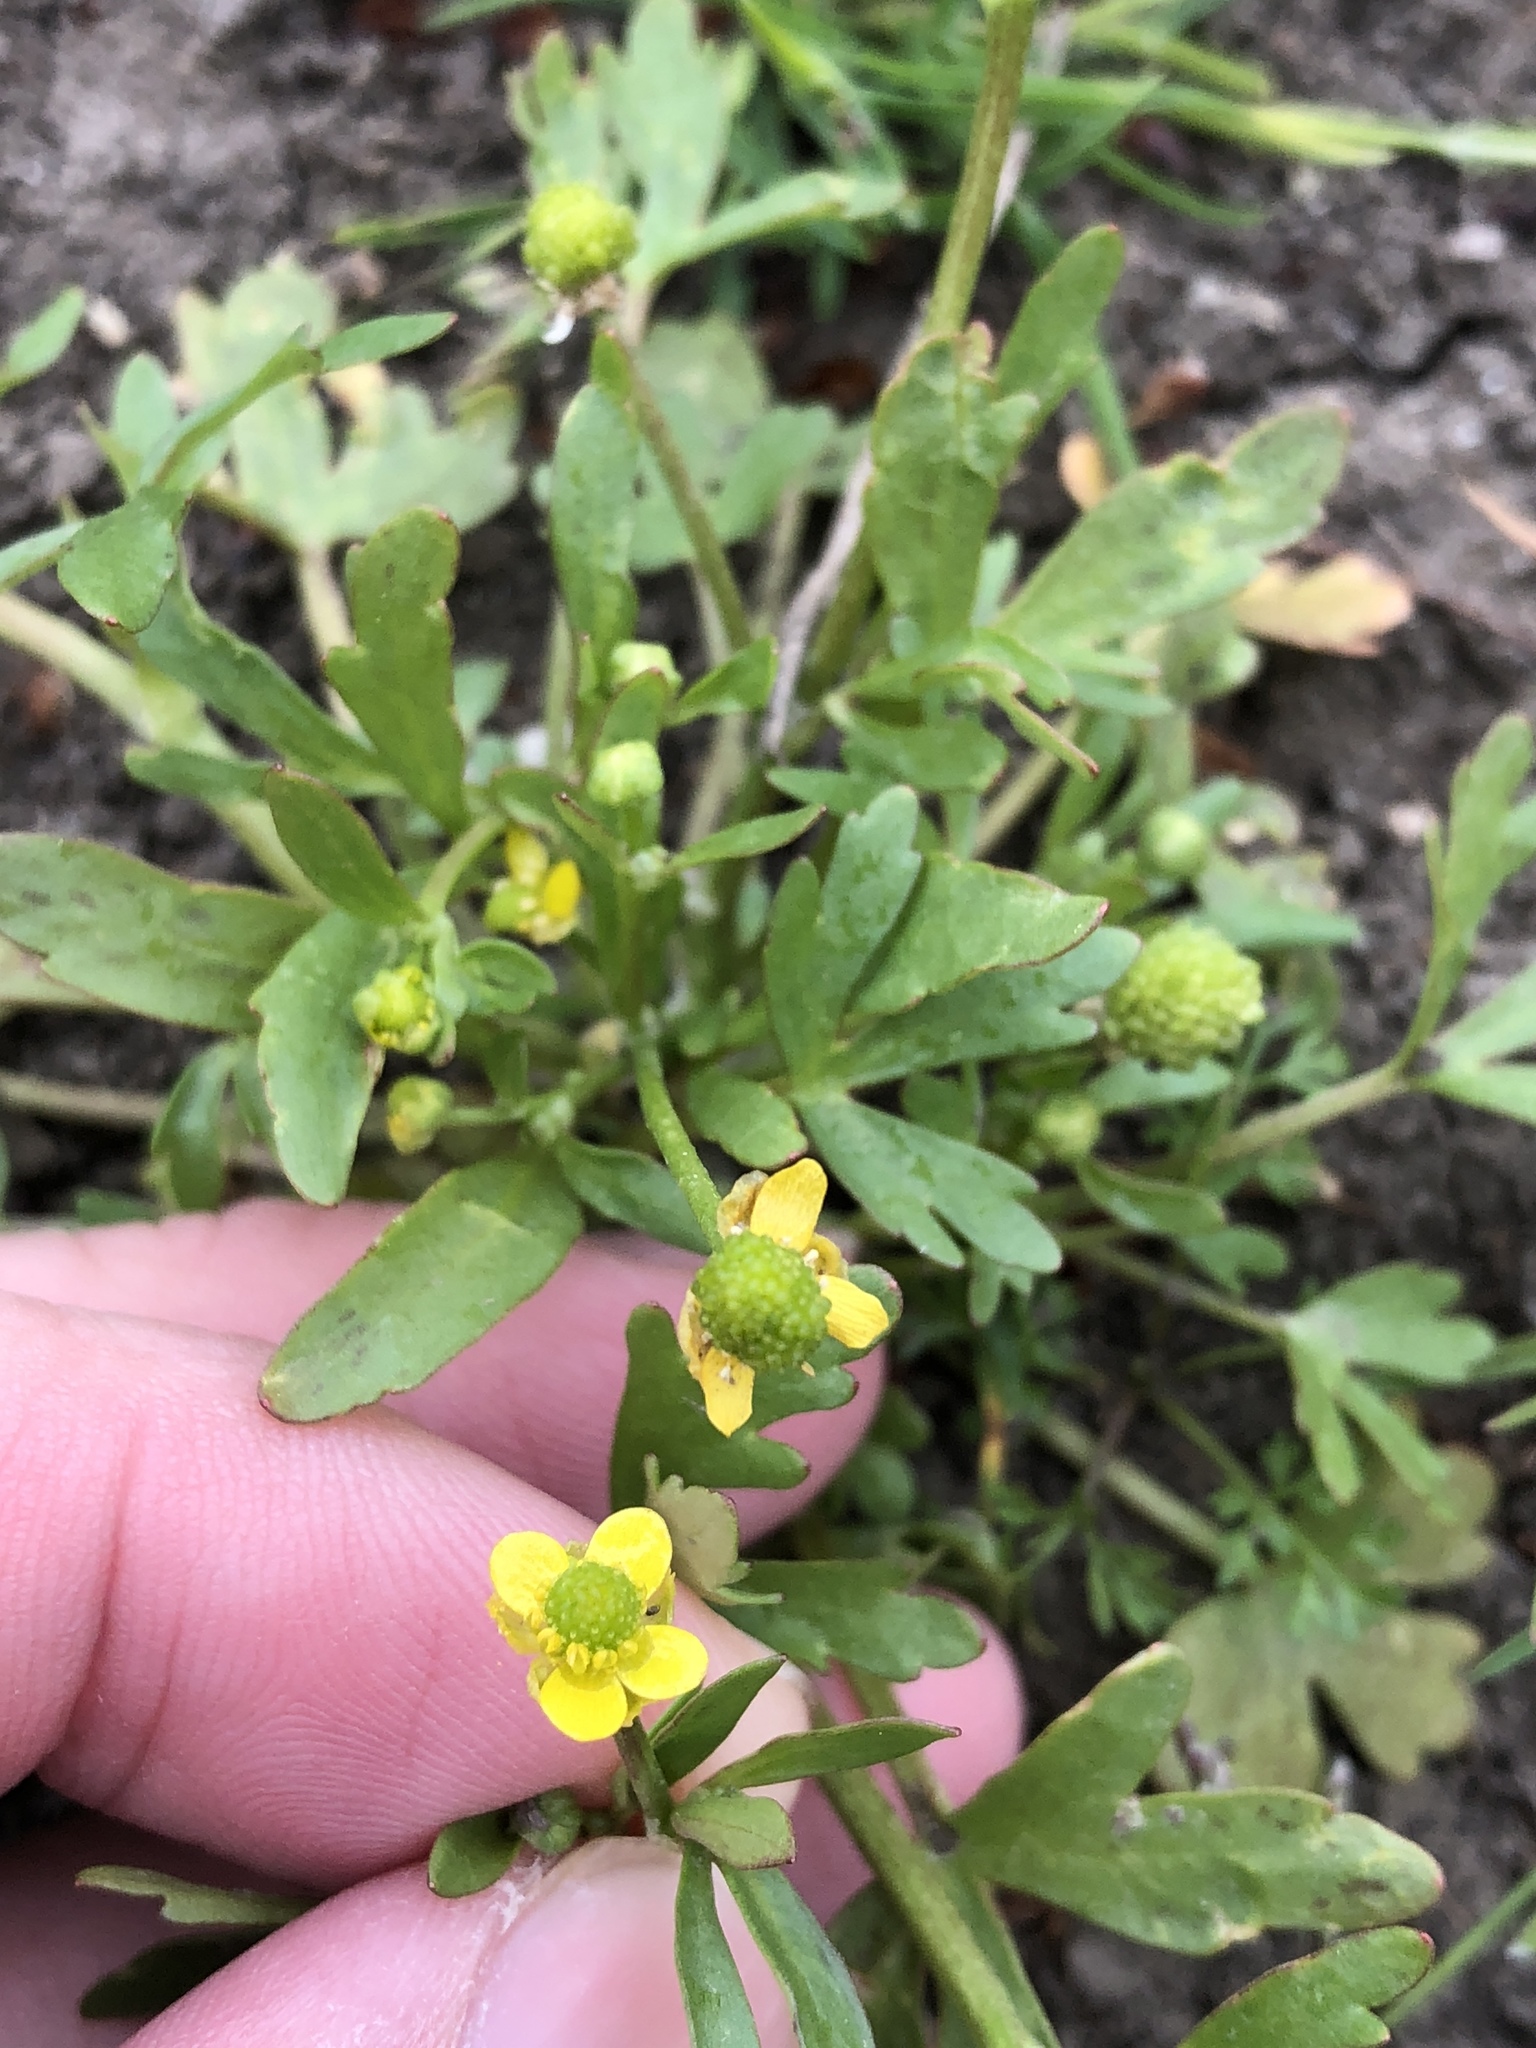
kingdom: Plantae
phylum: Tracheophyta
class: Magnoliopsida
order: Ranunculales
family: Ranunculaceae
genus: Ranunculus
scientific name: Ranunculus sceleratus
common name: Celery-leaved buttercup
